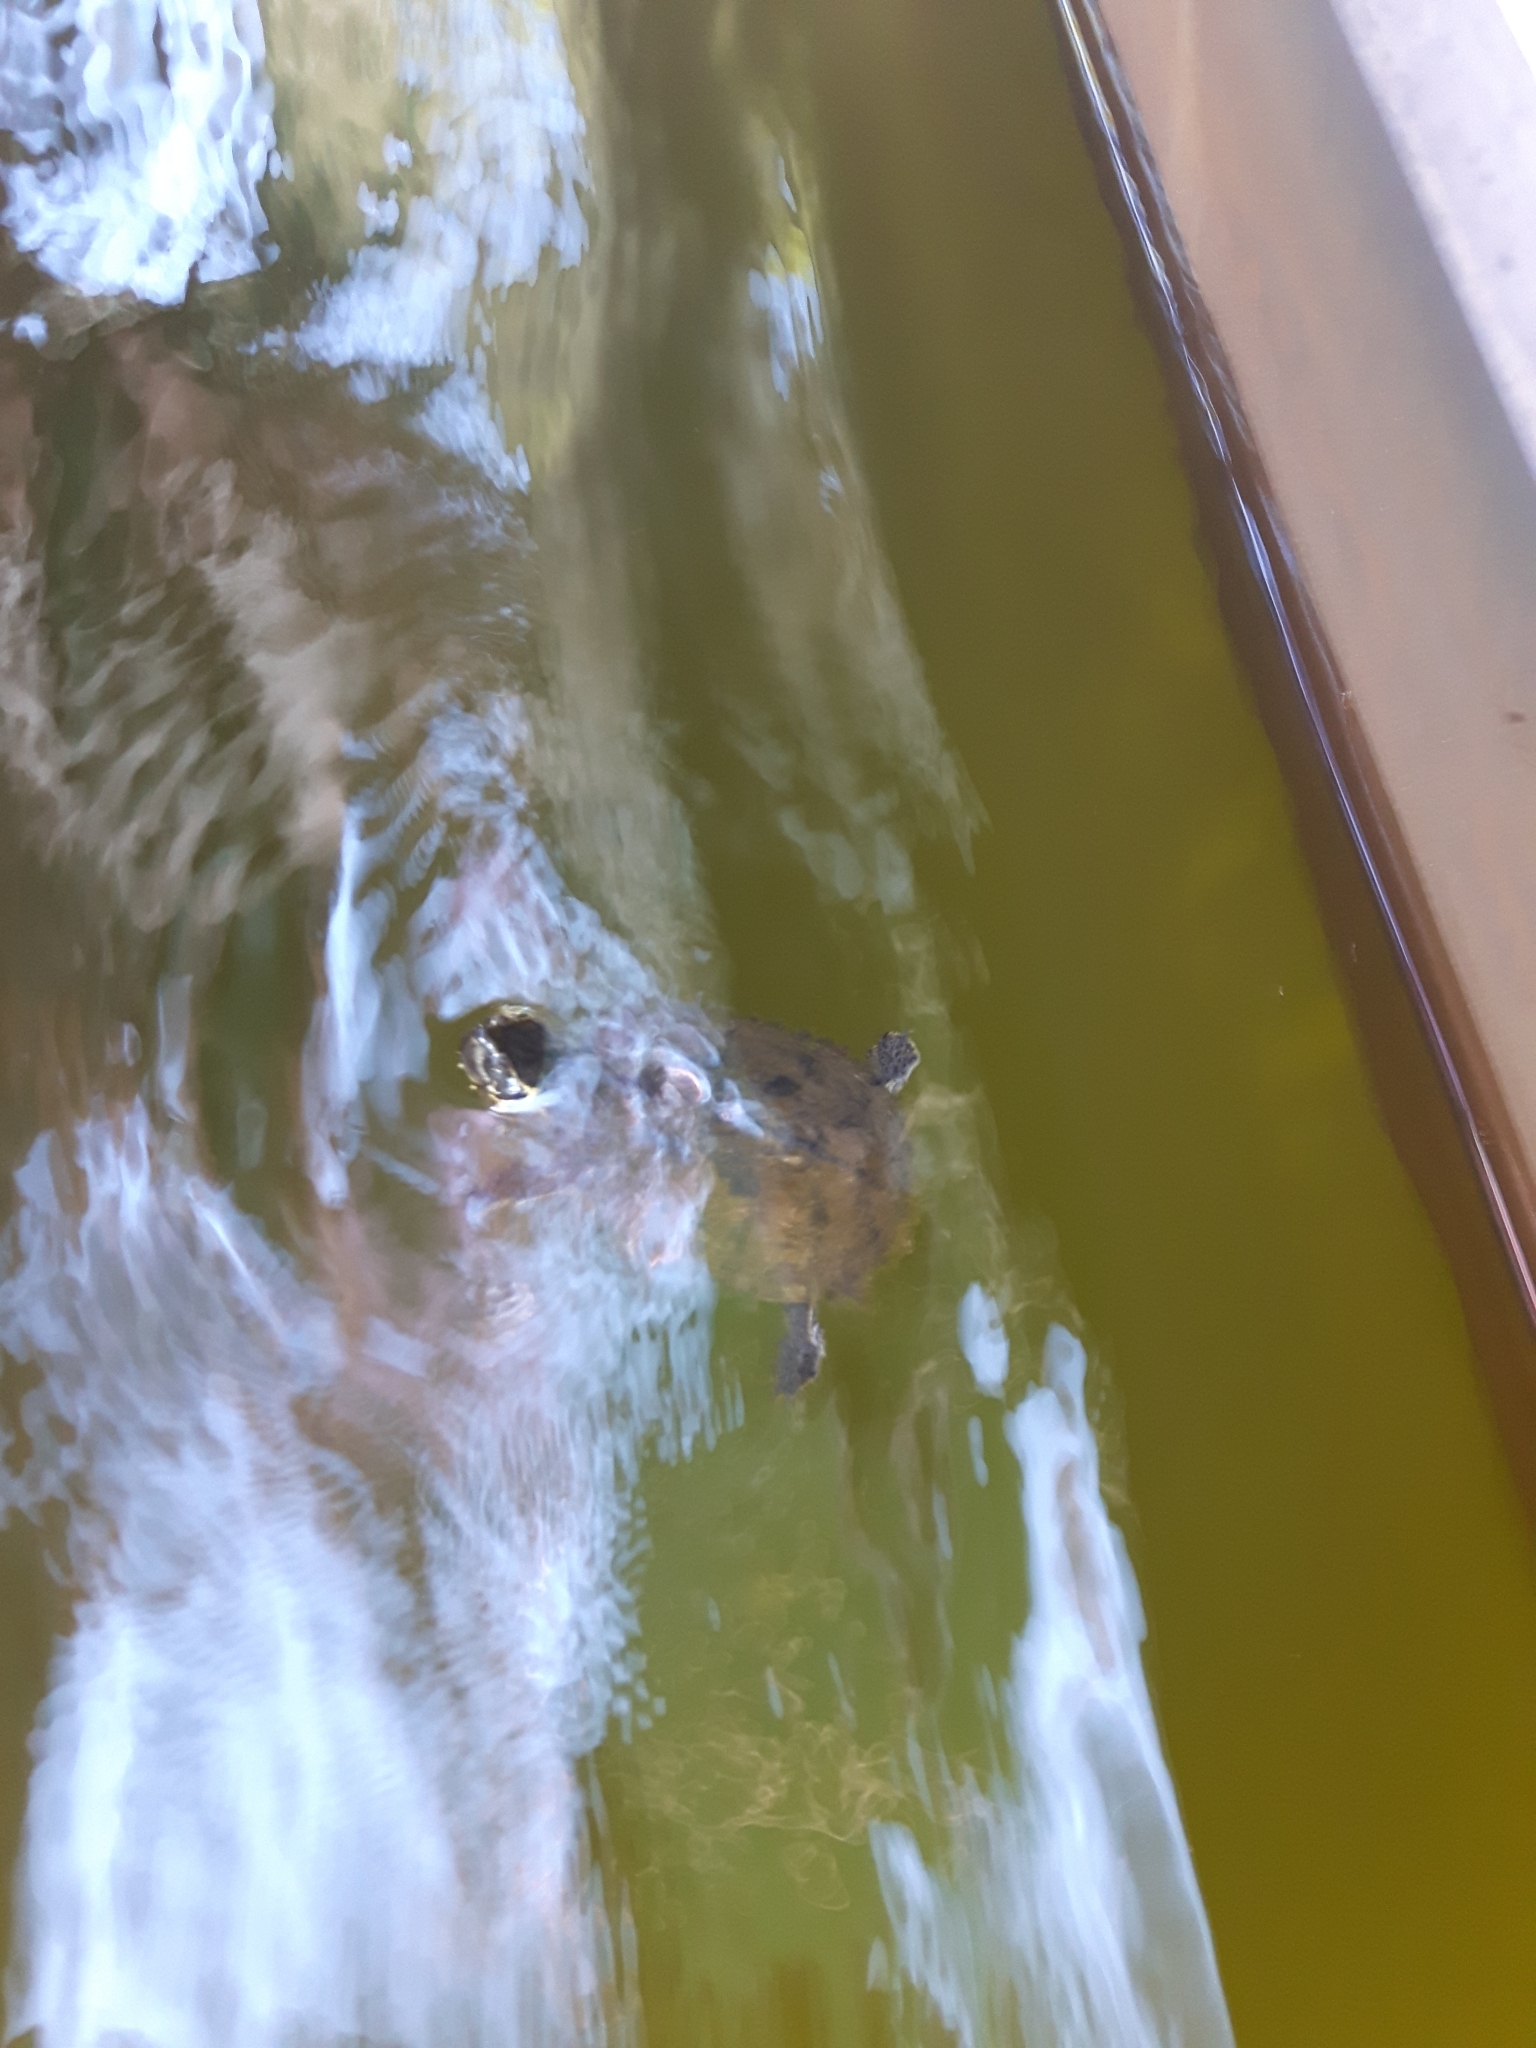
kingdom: Animalia
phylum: Chordata
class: Testudines
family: Kinosternidae
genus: Sternotherus
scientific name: Sternotherus odoratus
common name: Common musk turtle
